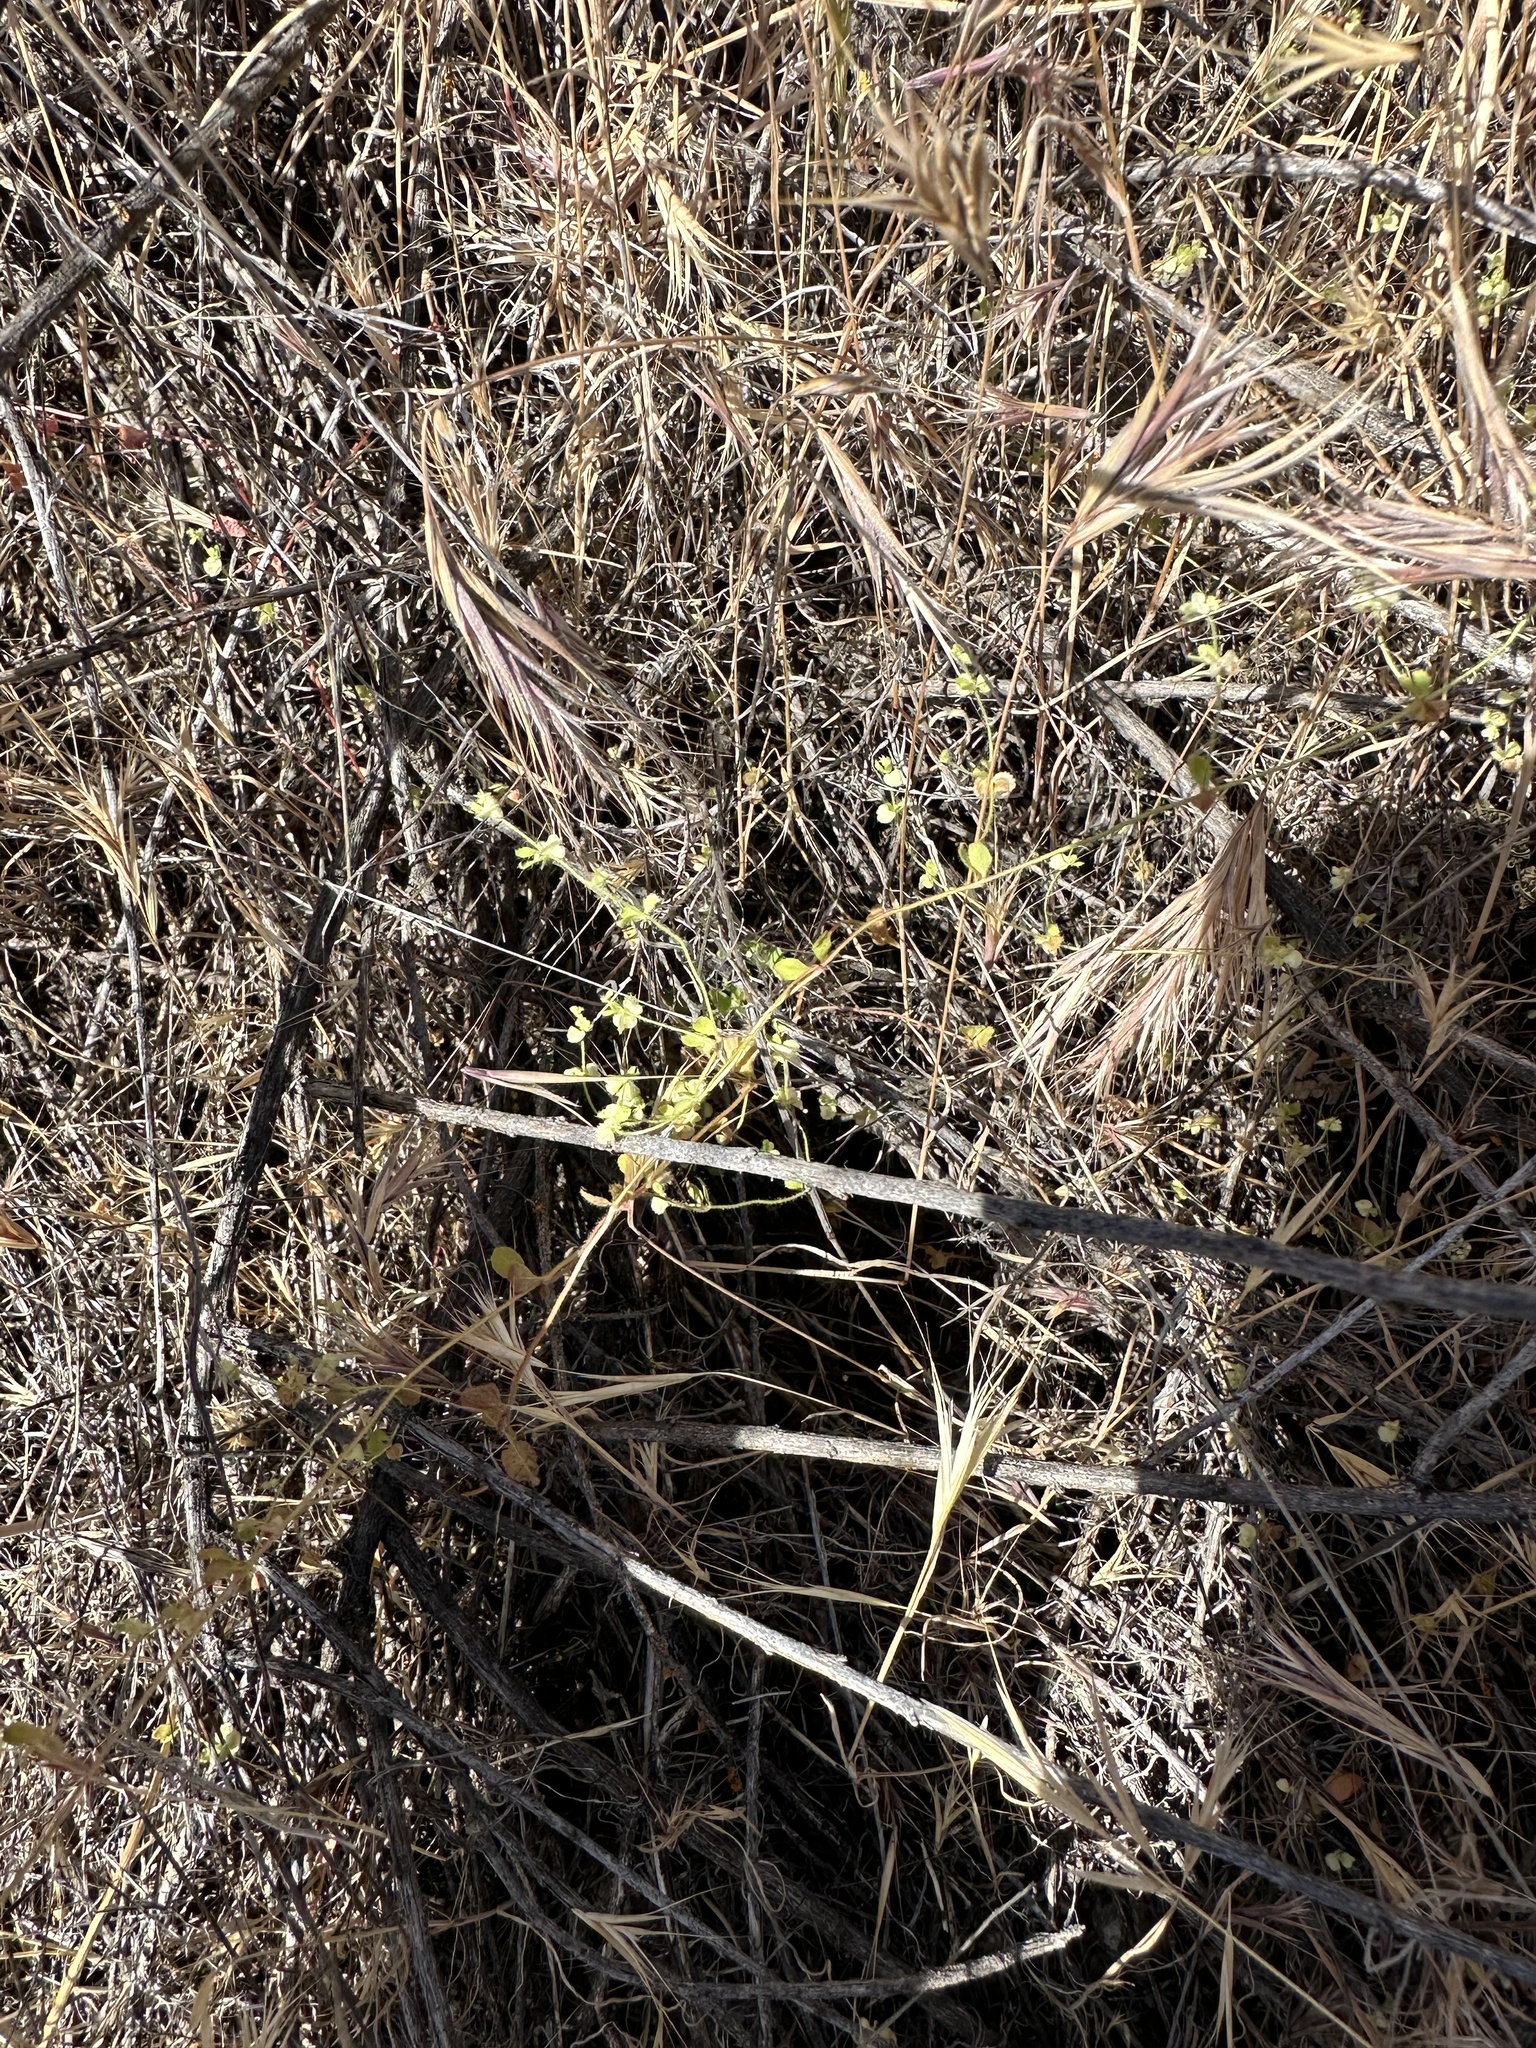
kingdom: Plantae
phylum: Tracheophyta
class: Magnoliopsida
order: Caryophyllales
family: Polygonaceae
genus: Pterostegia
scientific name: Pterostegia drymarioides
